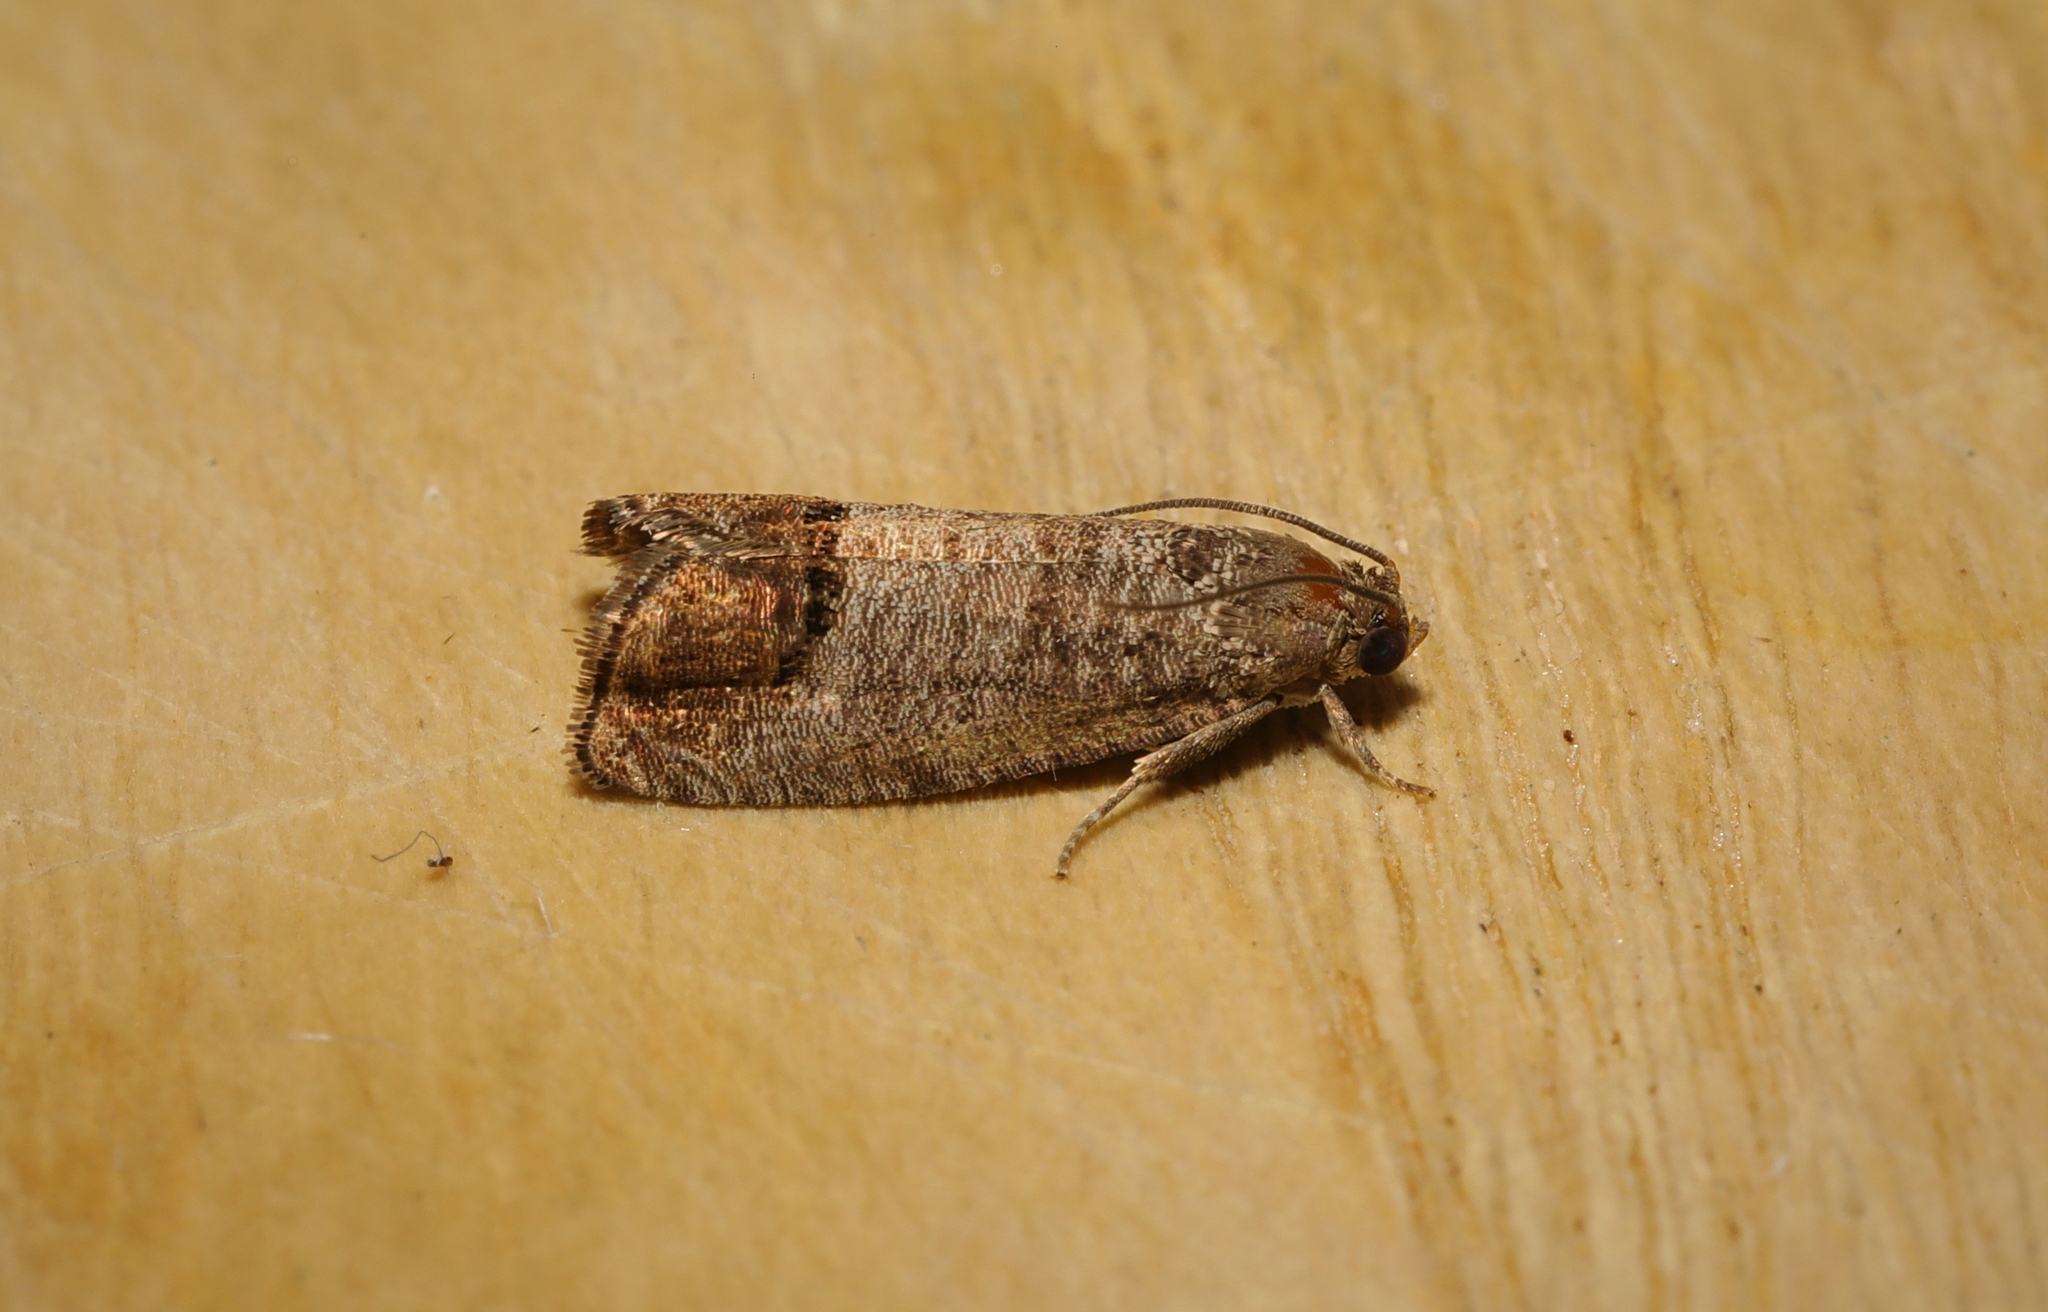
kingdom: Animalia
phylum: Arthropoda
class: Insecta
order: Lepidoptera
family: Tortricidae
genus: Cydia
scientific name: Cydia pomonella
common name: Codling moth
